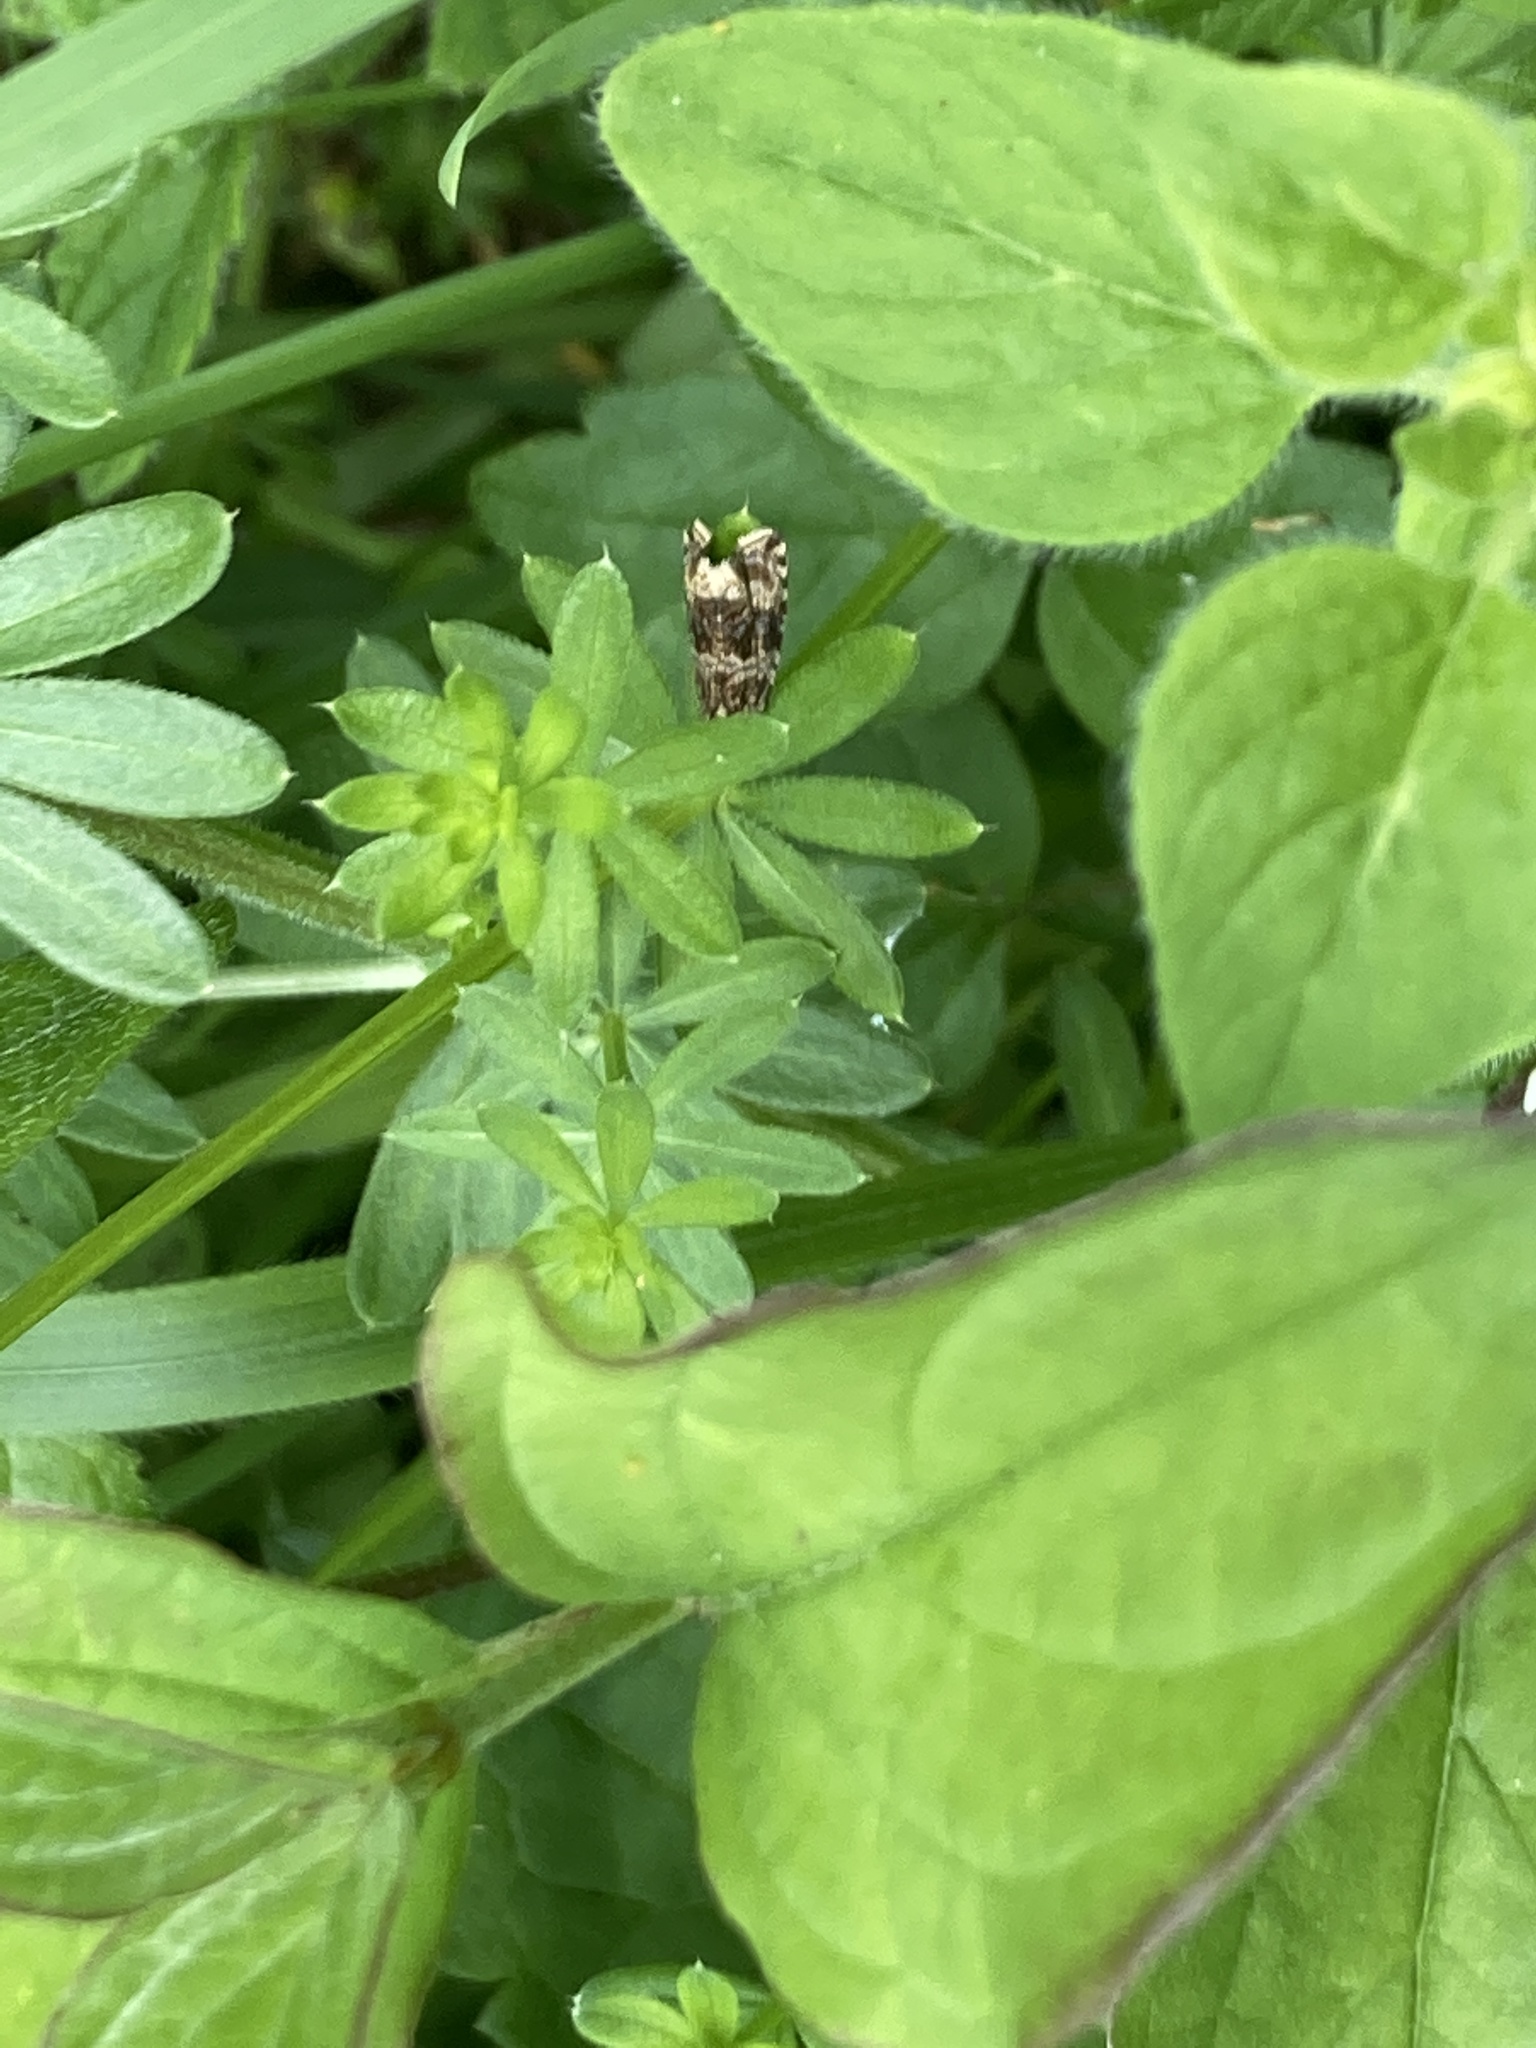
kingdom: Animalia
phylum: Arthropoda
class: Insecta
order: Lepidoptera
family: Tortricidae
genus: Syricoris
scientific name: Syricoris lacunana
